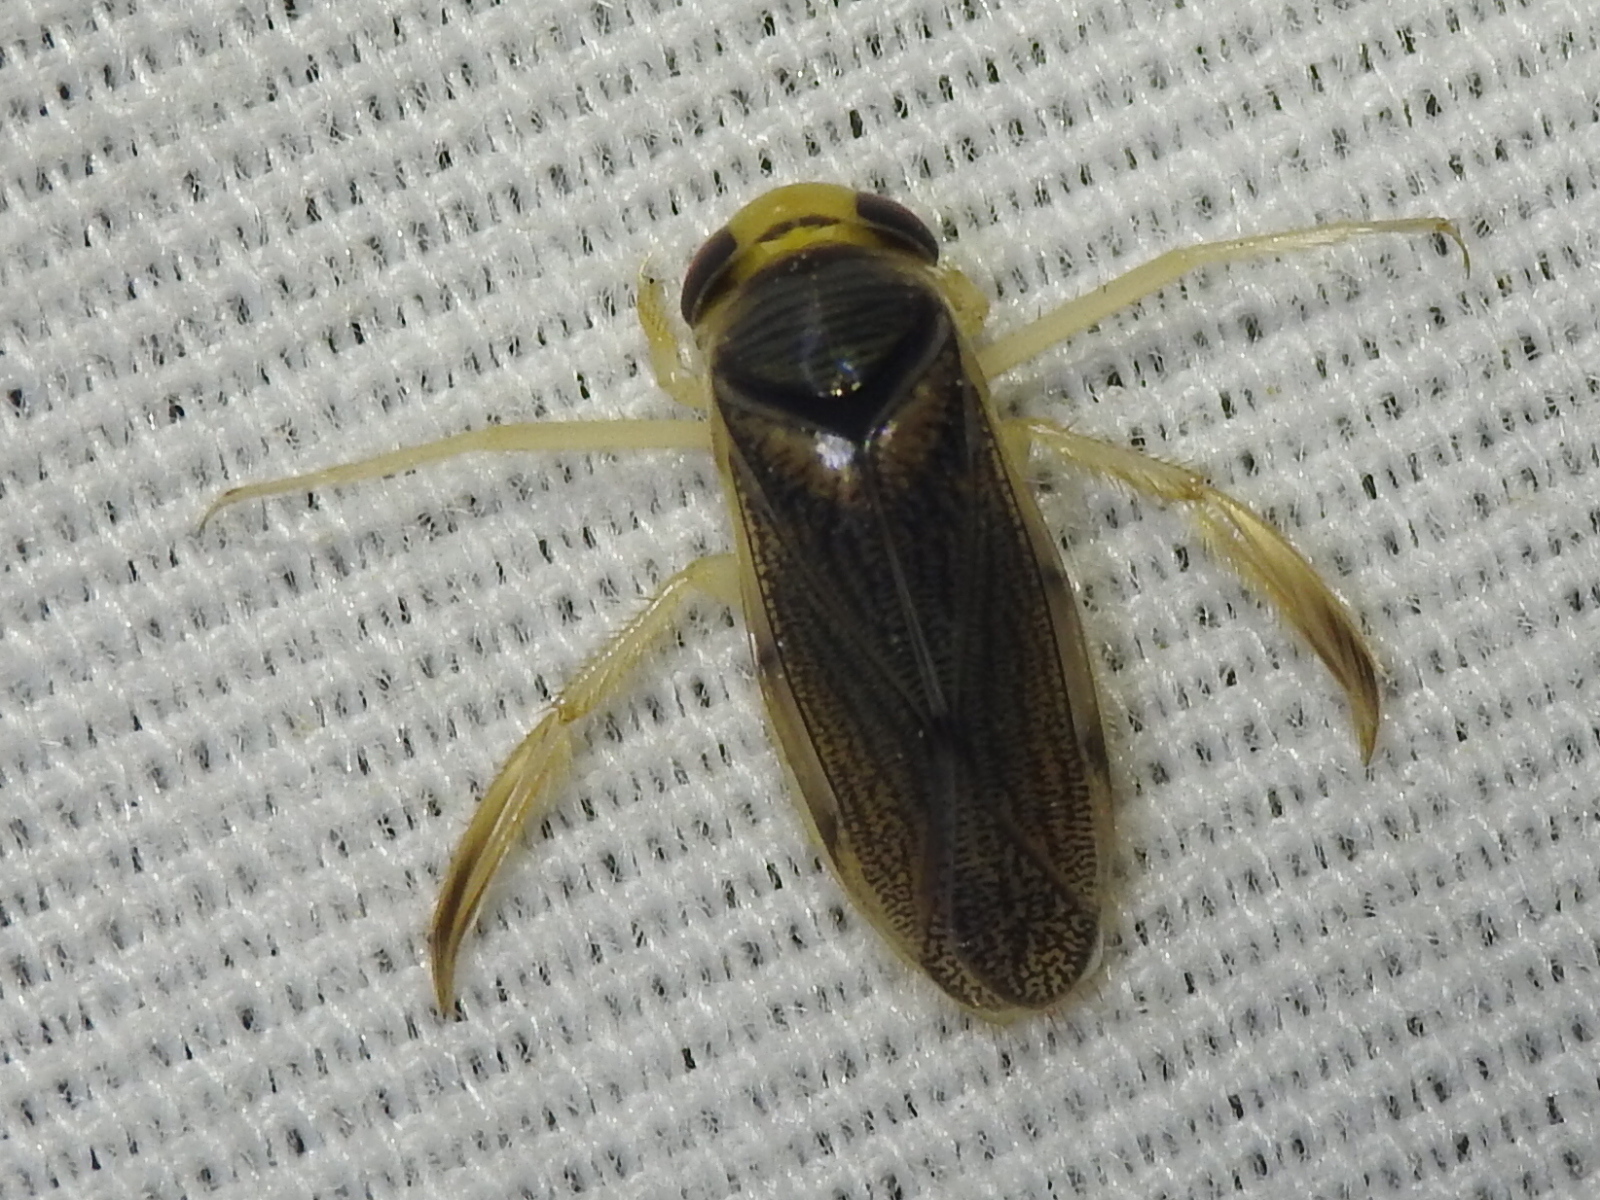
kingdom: Animalia
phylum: Arthropoda
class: Insecta
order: Hemiptera
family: Corixidae
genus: Corisella
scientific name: Corisella edulis
